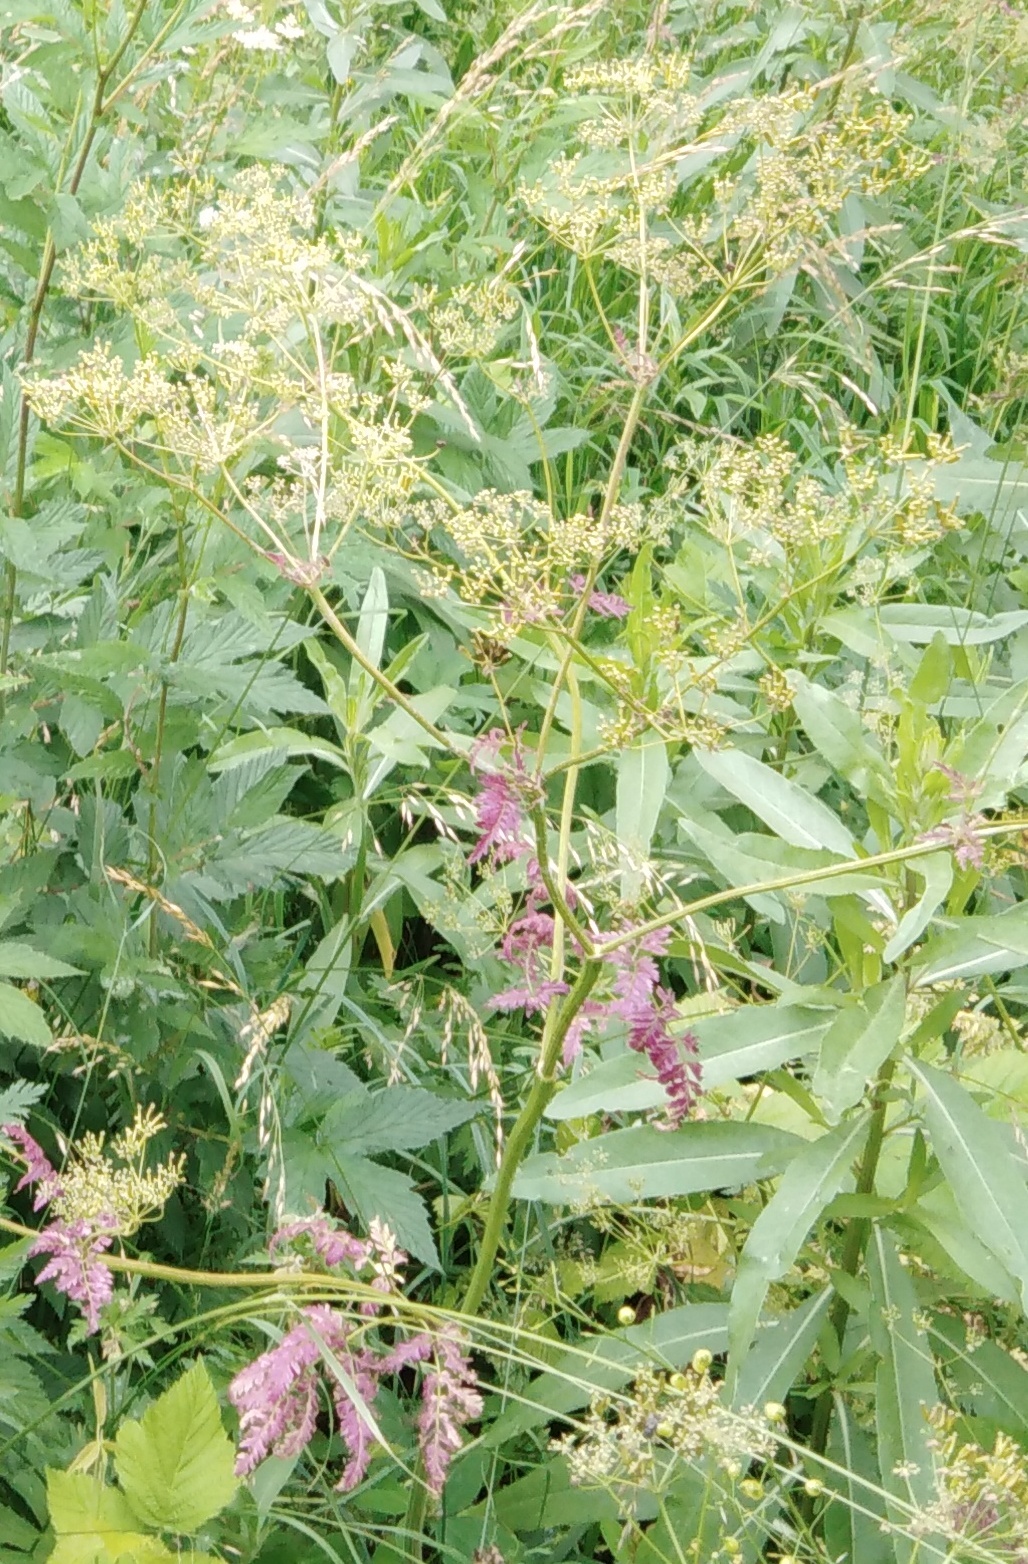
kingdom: Plantae
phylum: Tracheophyta
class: Magnoliopsida
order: Apiales
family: Apiaceae
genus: Anthriscus
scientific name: Anthriscus sylvestris
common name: Cow parsley
